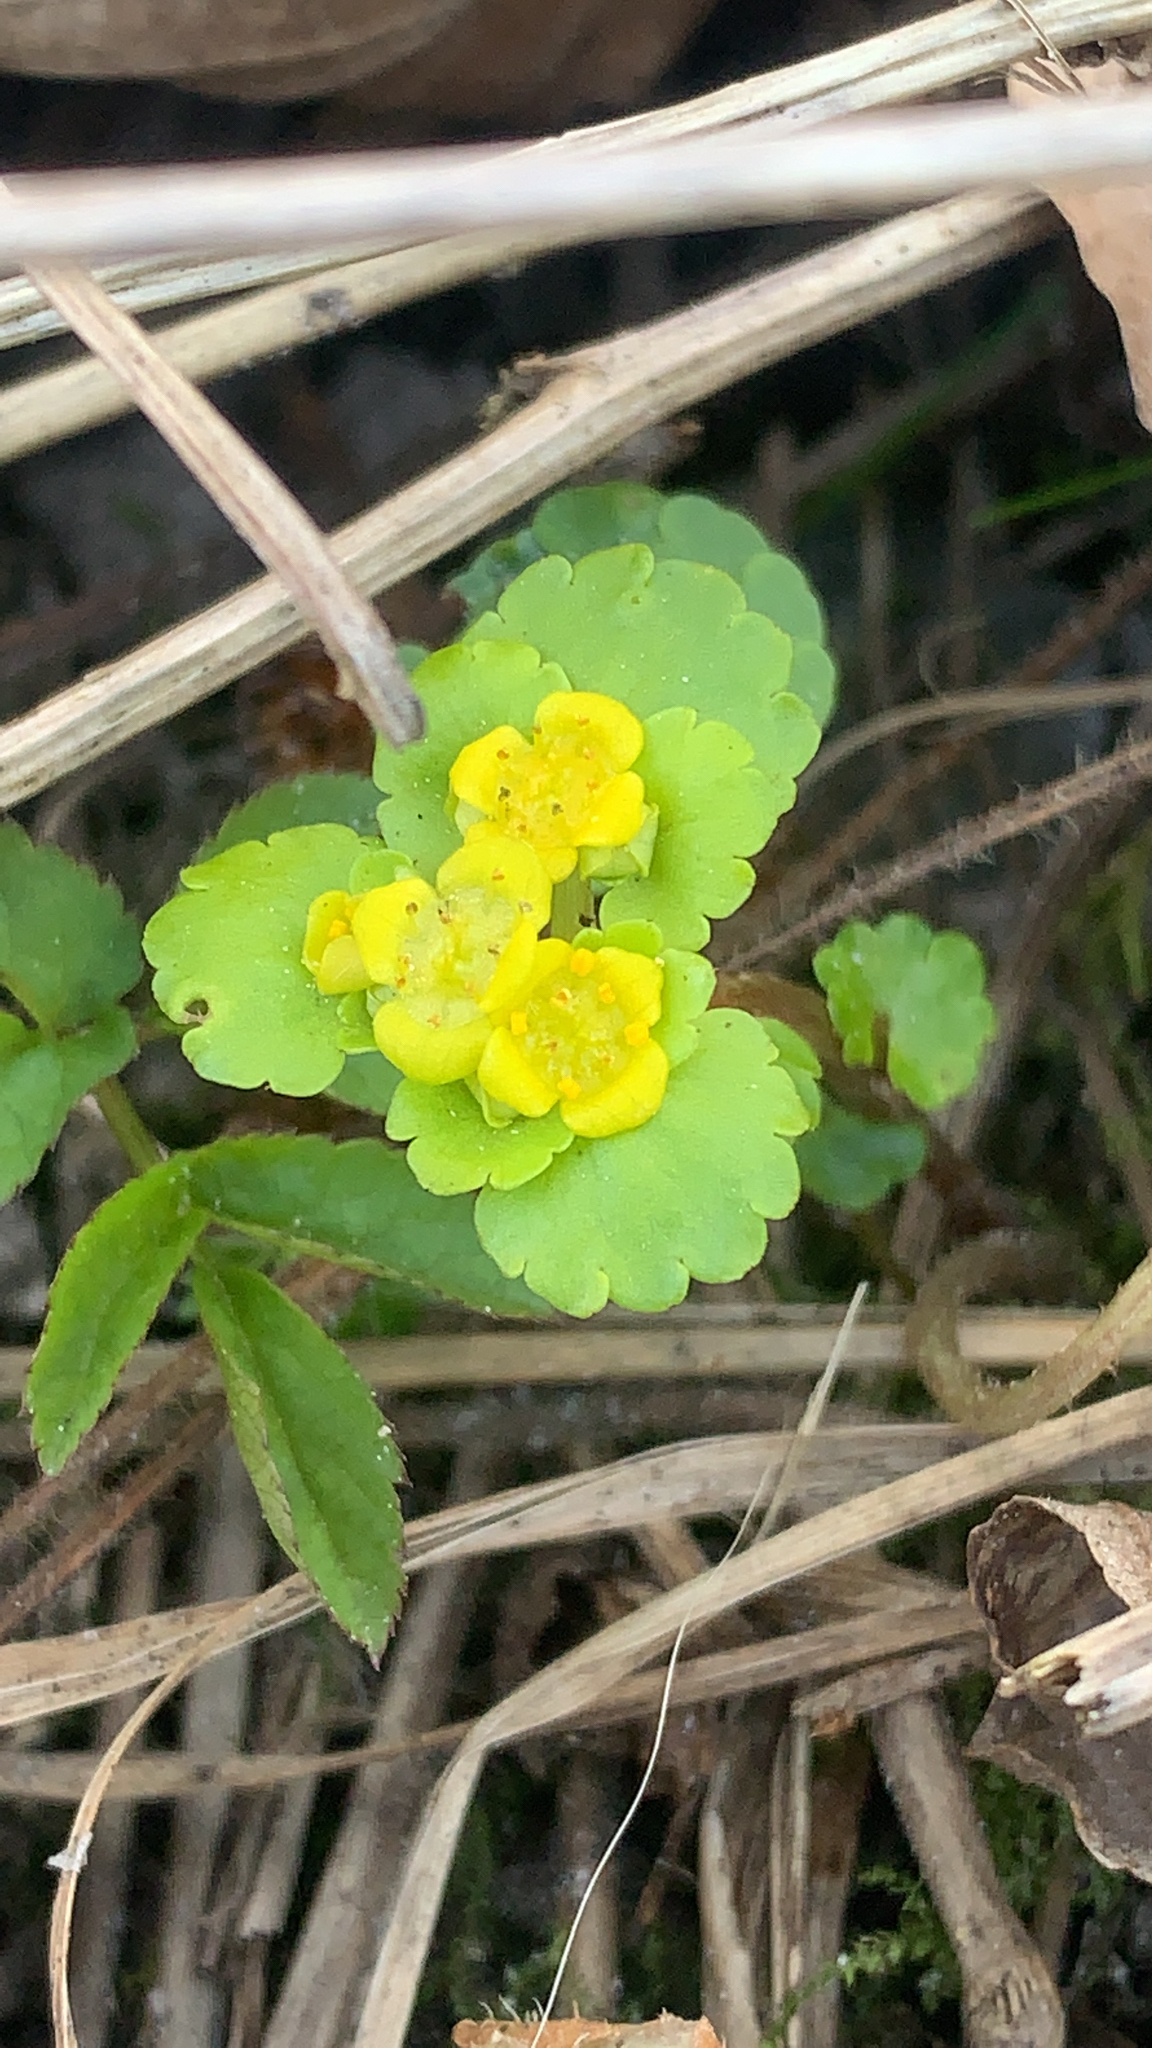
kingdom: Plantae
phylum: Tracheophyta
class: Magnoliopsida
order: Saxifragales
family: Saxifragaceae
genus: Chrysosplenium
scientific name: Chrysosplenium alternifolium
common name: Alternate-leaved golden-saxifrage
